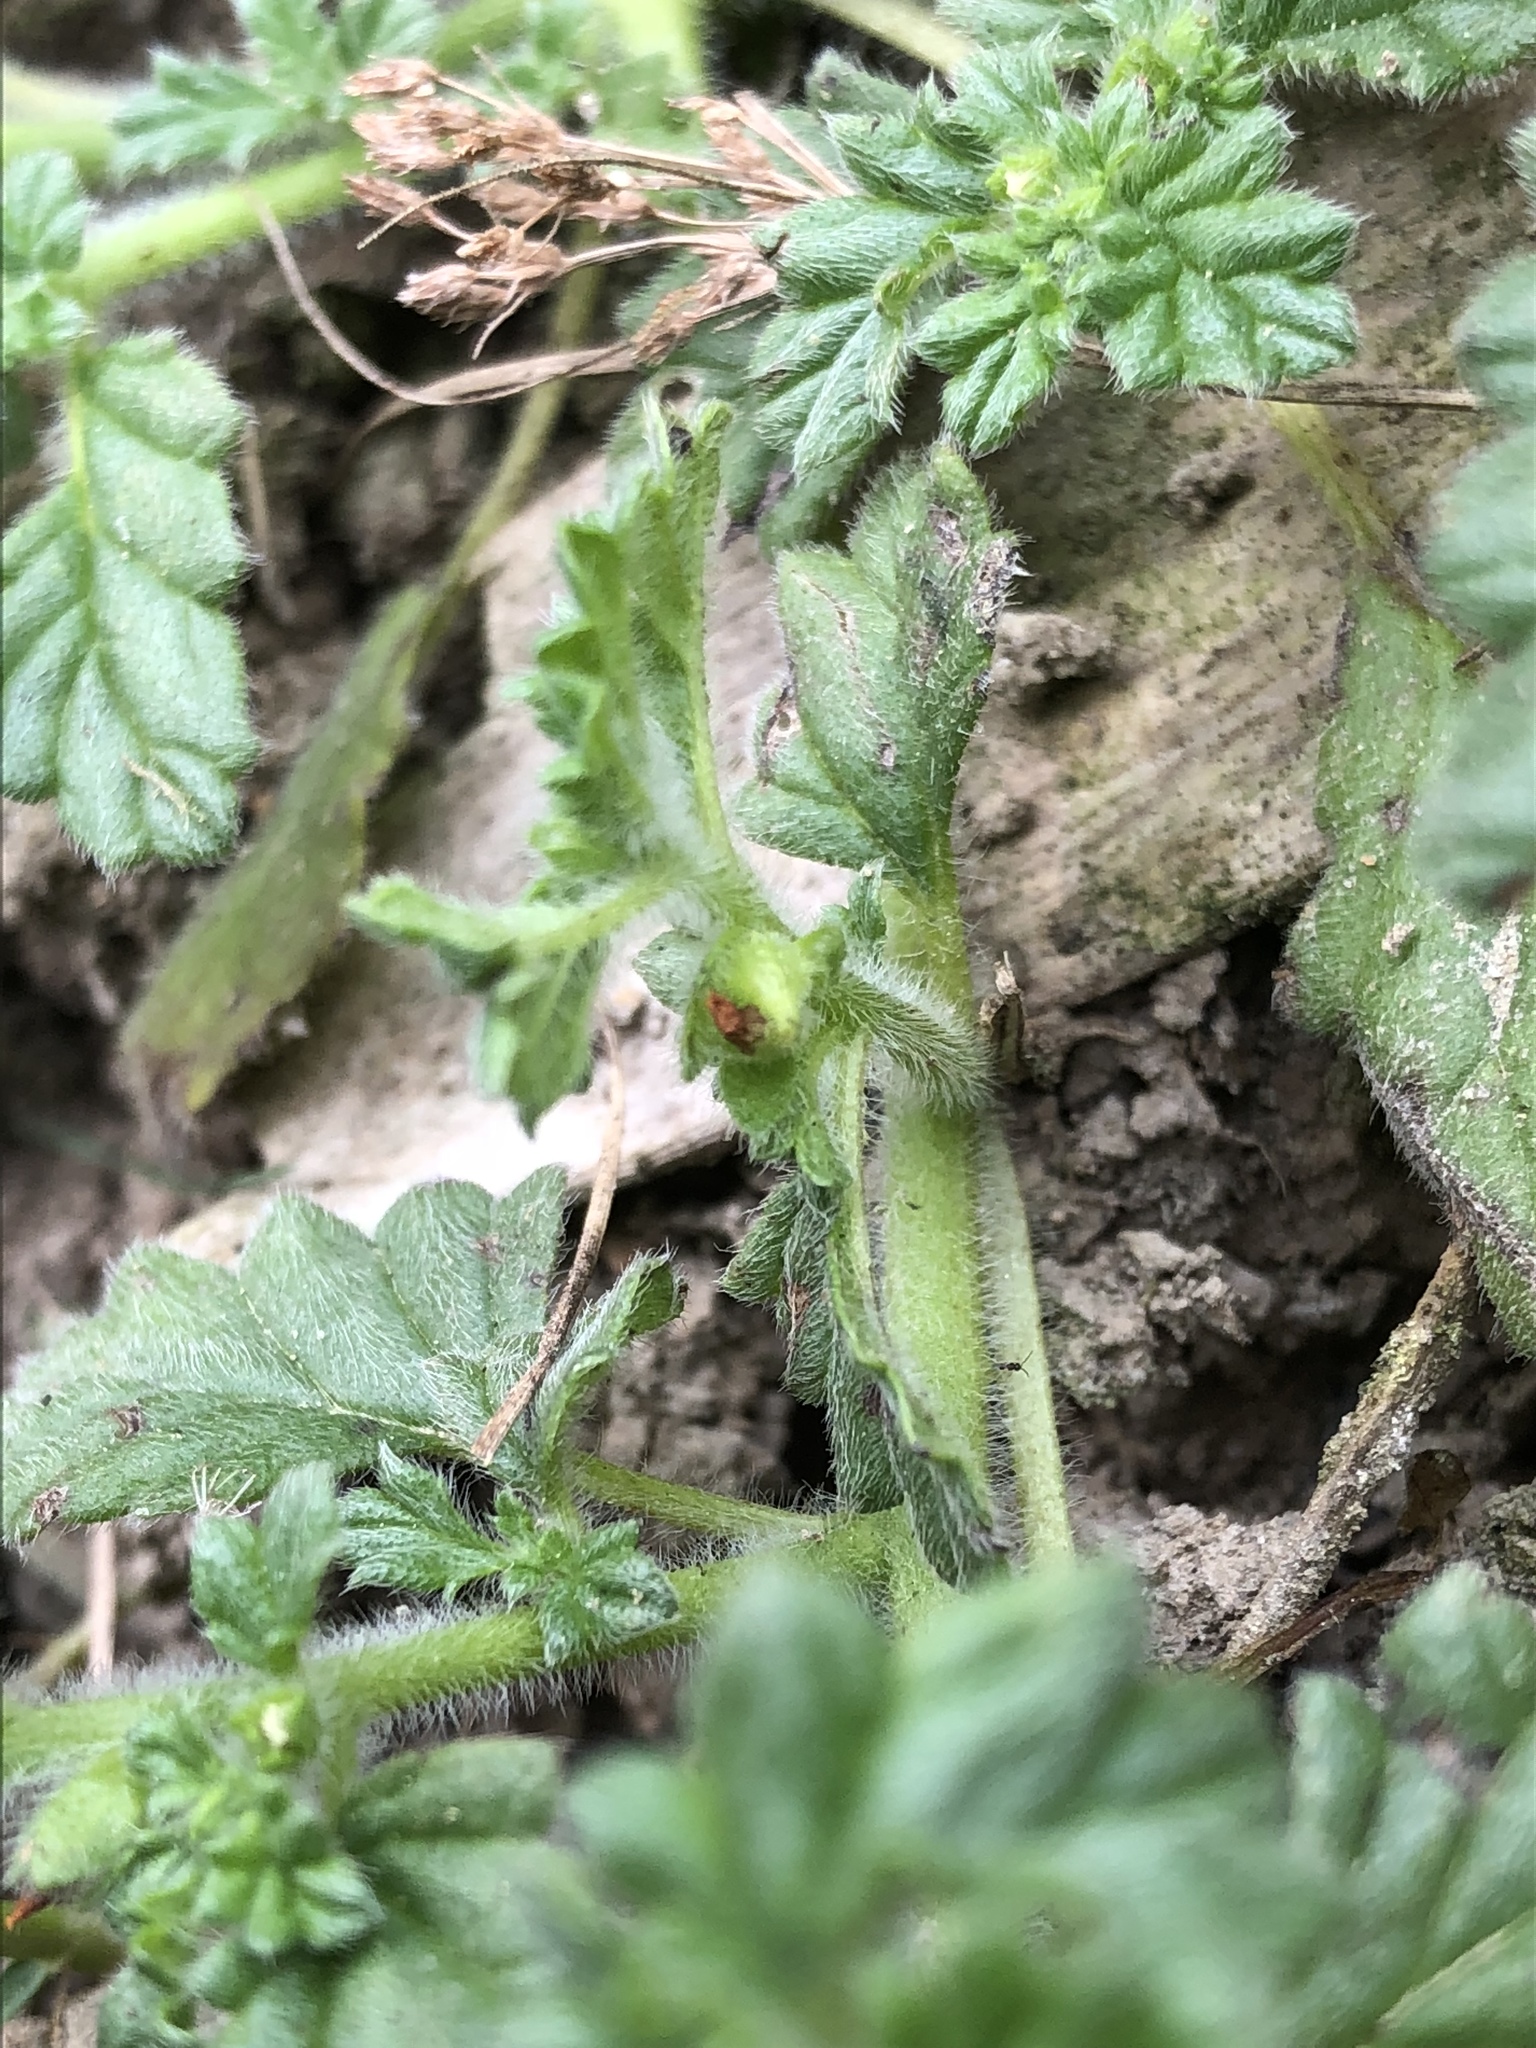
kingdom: Plantae
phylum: Tracheophyta
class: Magnoliopsida
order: Boraginales
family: Coldeniaceae
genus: Coldenia
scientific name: Coldenia procumbens
